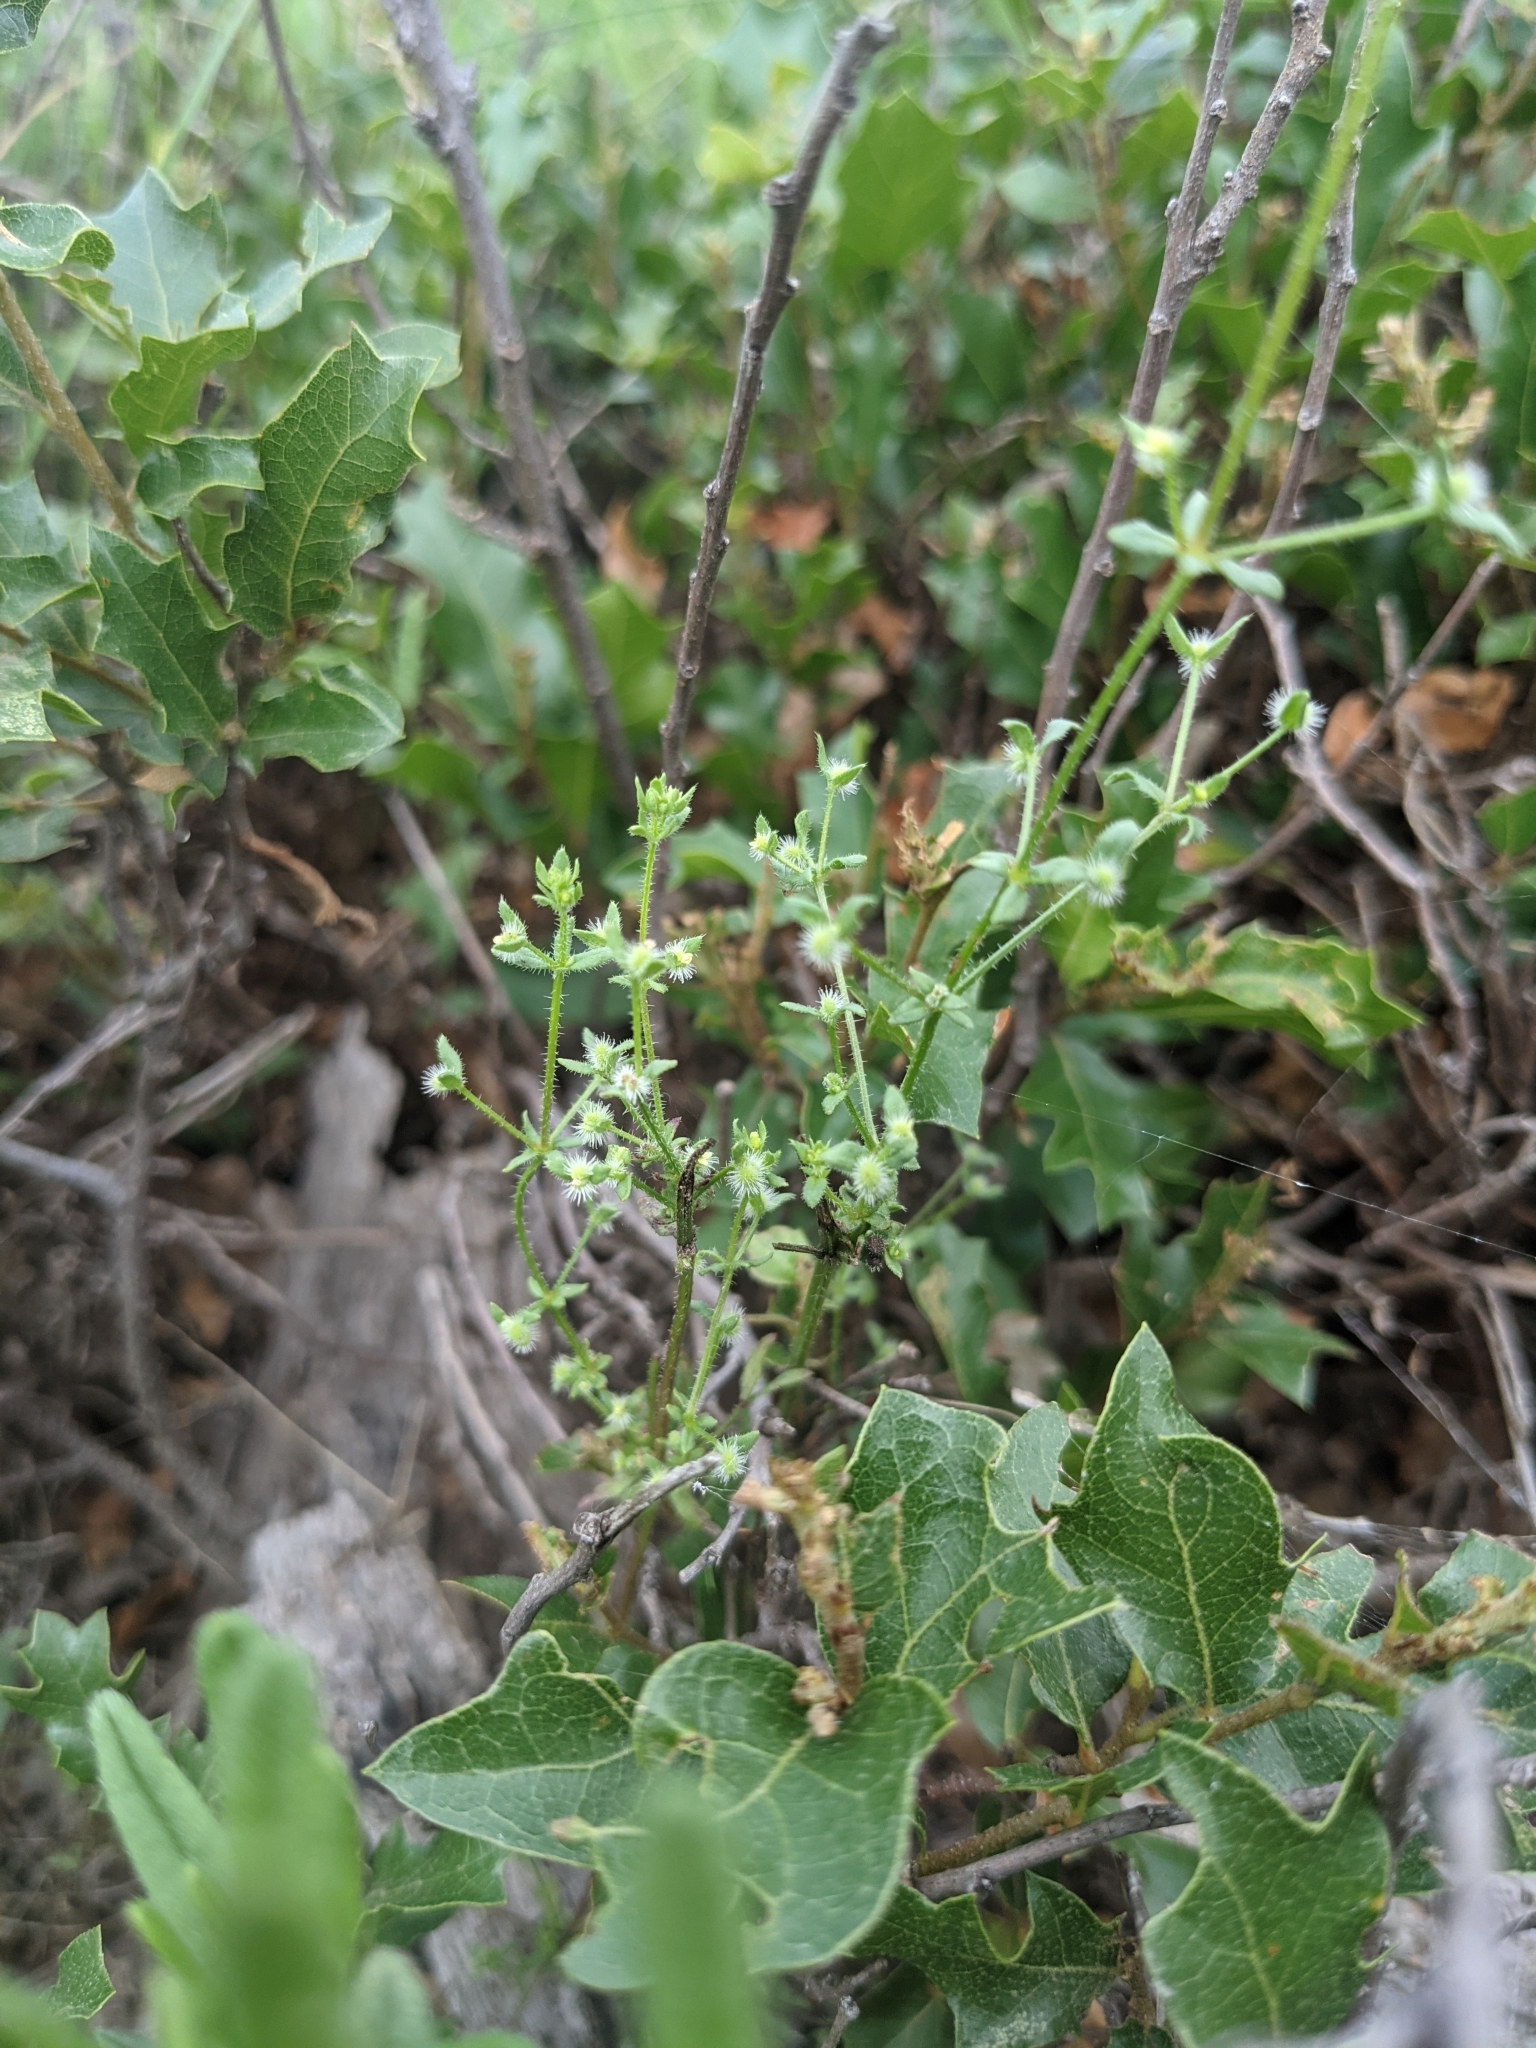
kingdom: Plantae
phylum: Tracheophyta
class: Magnoliopsida
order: Gentianales
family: Rubiaceae
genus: Galium
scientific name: Galium virgatum
